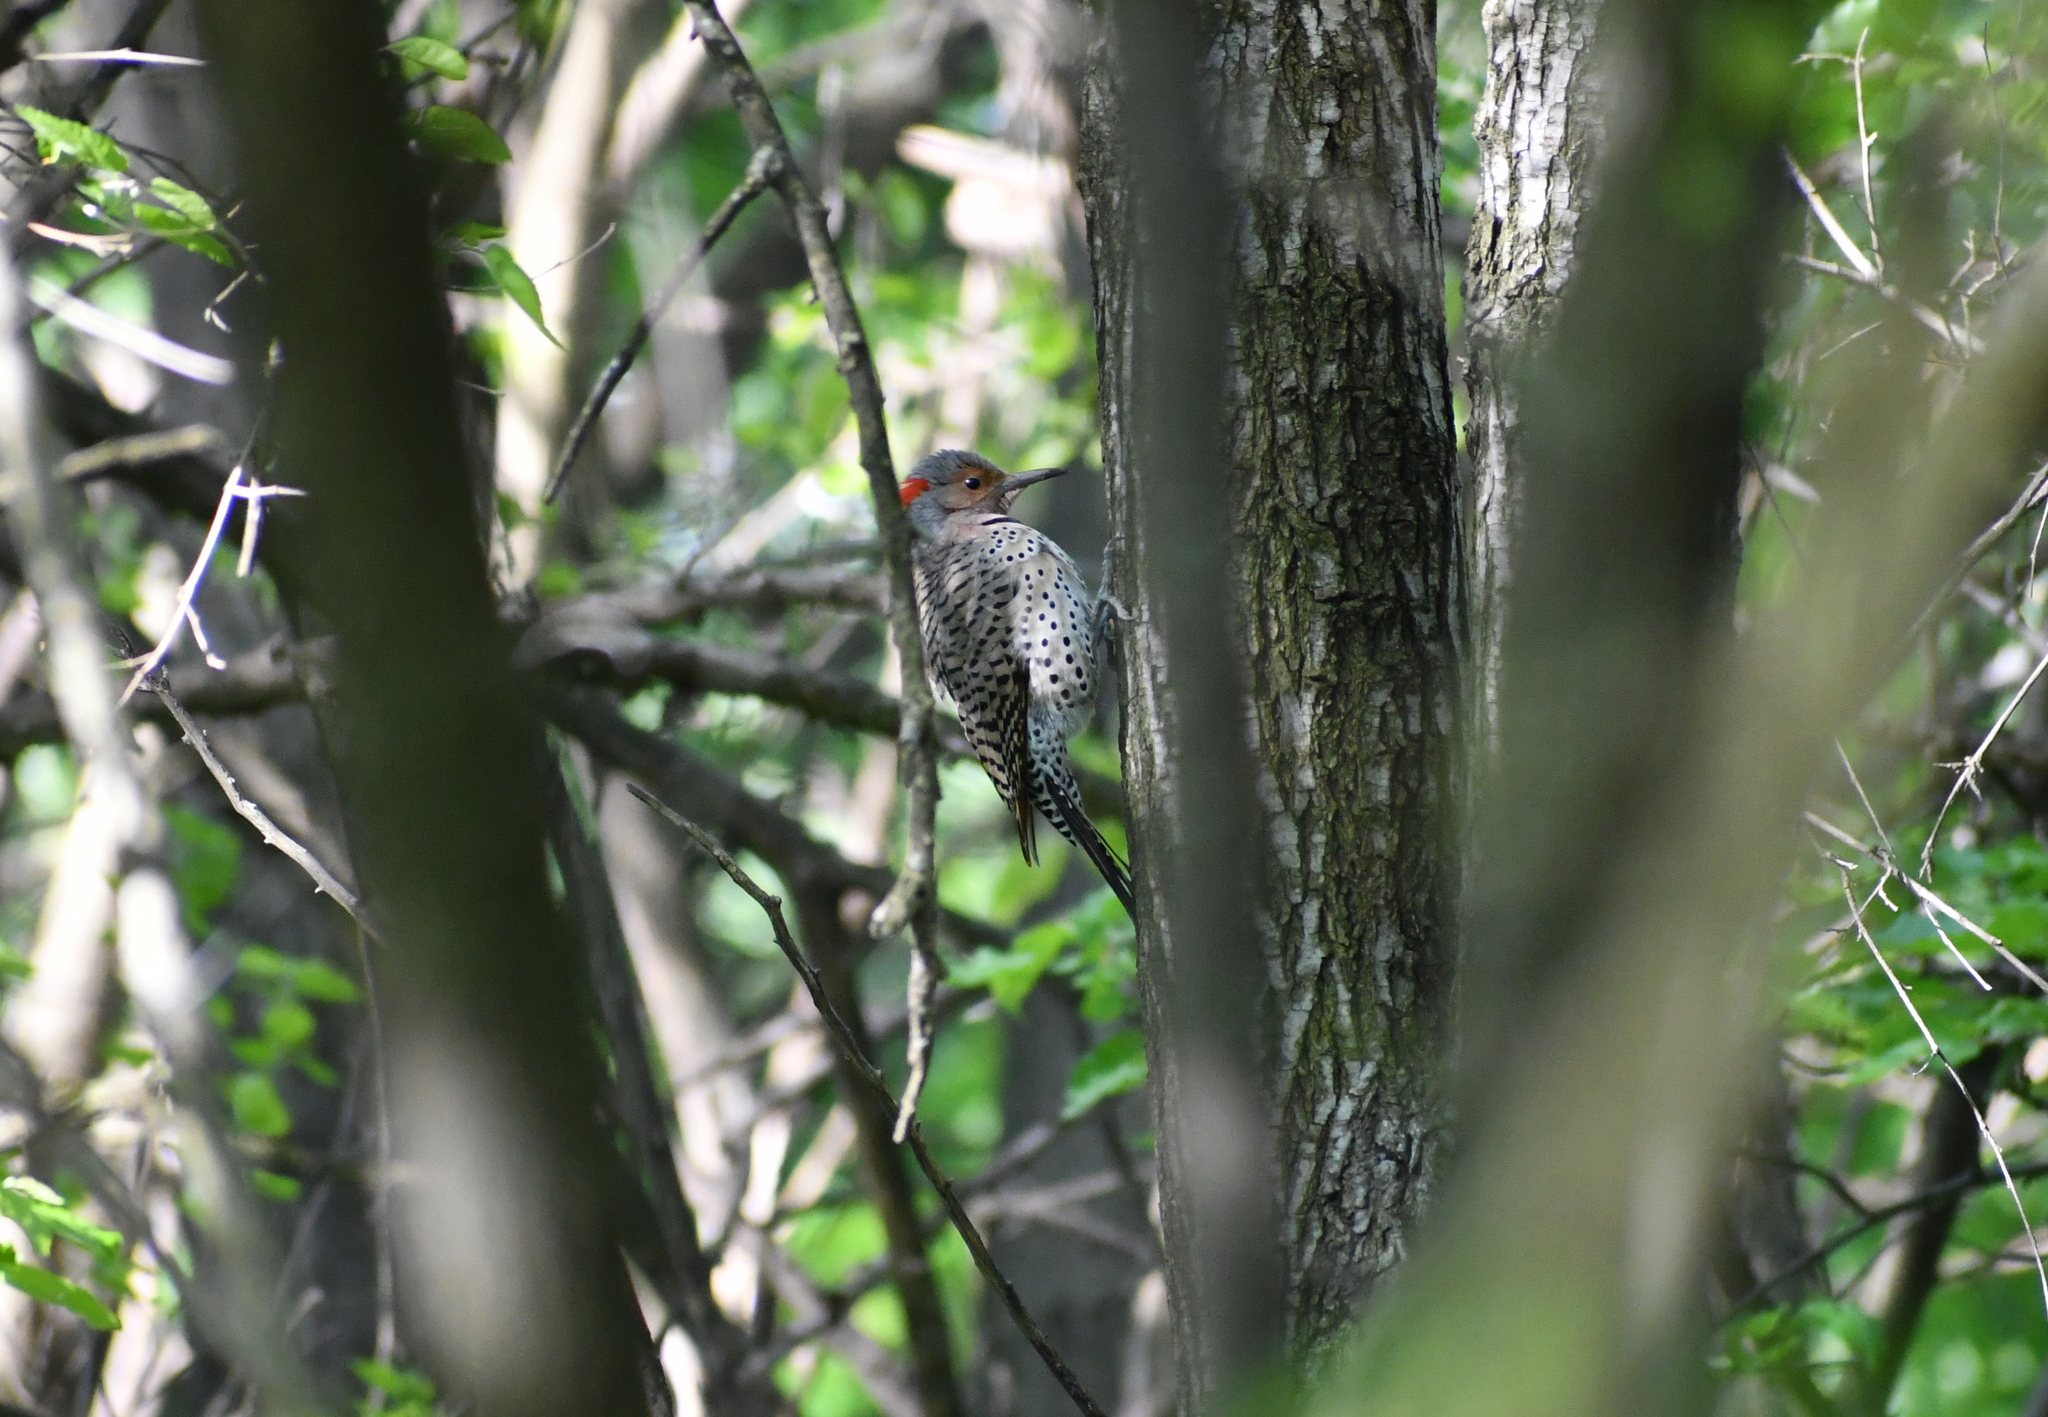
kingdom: Animalia
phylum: Chordata
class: Aves
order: Piciformes
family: Picidae
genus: Colaptes
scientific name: Colaptes auratus
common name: Northern flicker
